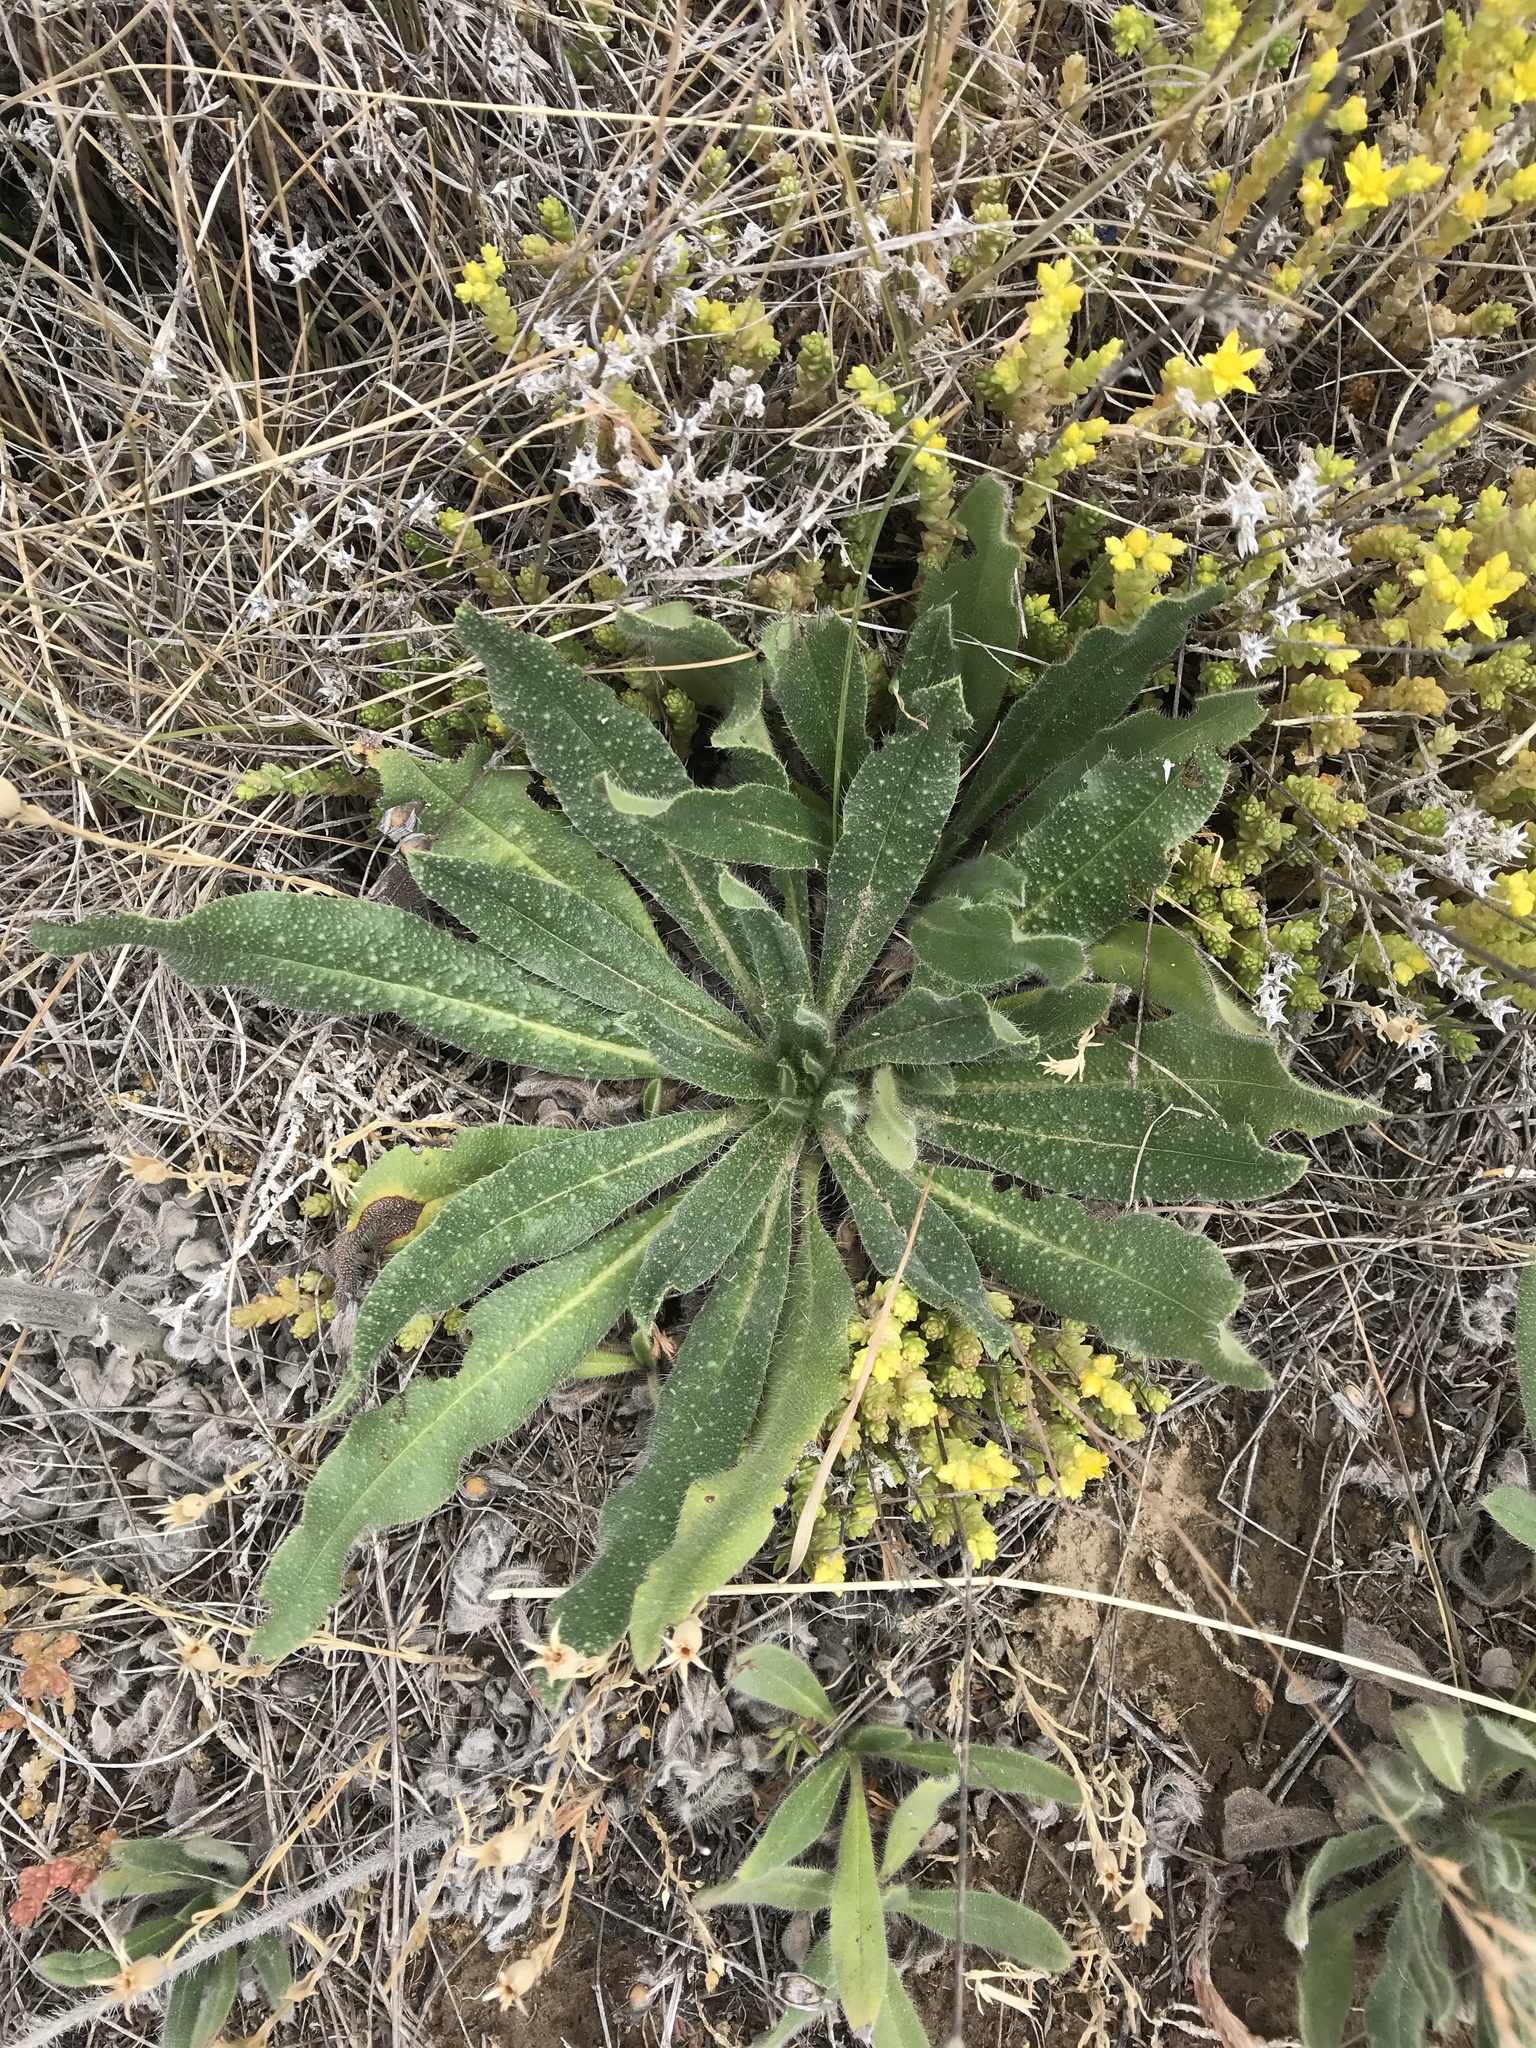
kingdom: Plantae
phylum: Tracheophyta
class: Magnoliopsida
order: Boraginales
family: Boraginaceae
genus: Echium
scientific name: Echium vulgare
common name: Common viper's bugloss
